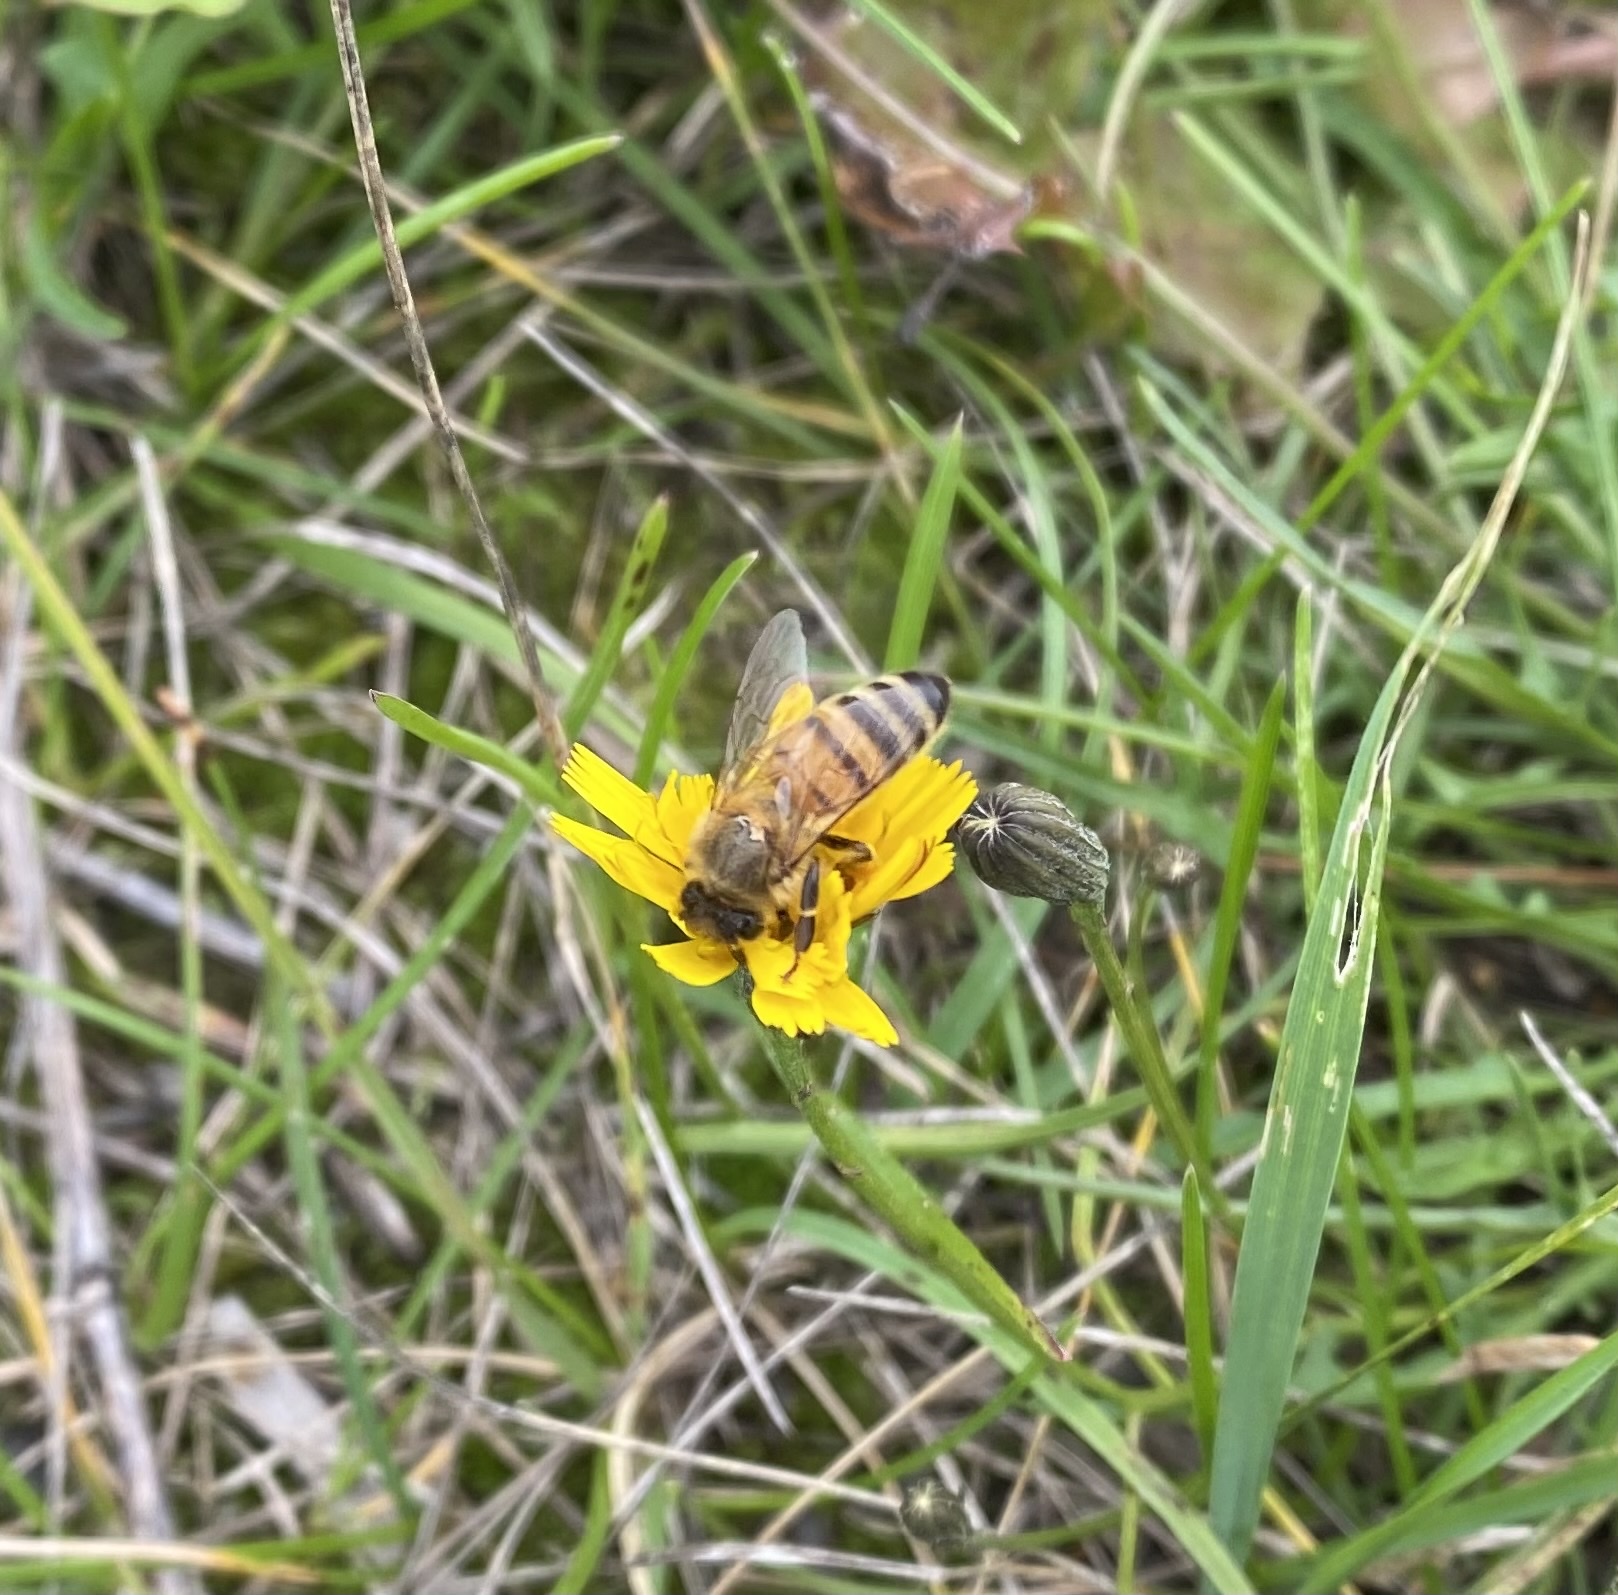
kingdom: Animalia
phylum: Arthropoda
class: Insecta
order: Hymenoptera
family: Apidae
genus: Apis
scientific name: Apis mellifera
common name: Honey bee
